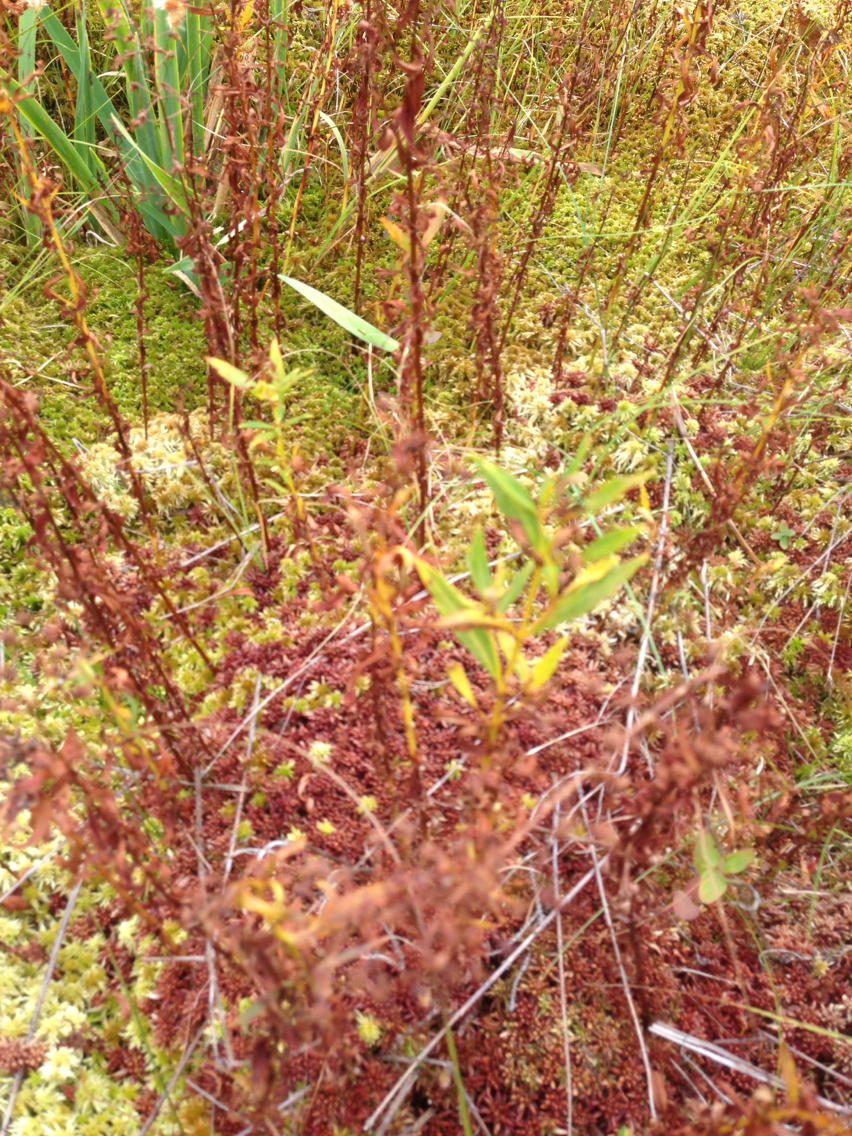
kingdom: Plantae
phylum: Tracheophyta
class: Magnoliopsida
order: Ericales
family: Primulaceae
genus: Lysimachia
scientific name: Lysimachia terrestris
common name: Lake loosestrife
